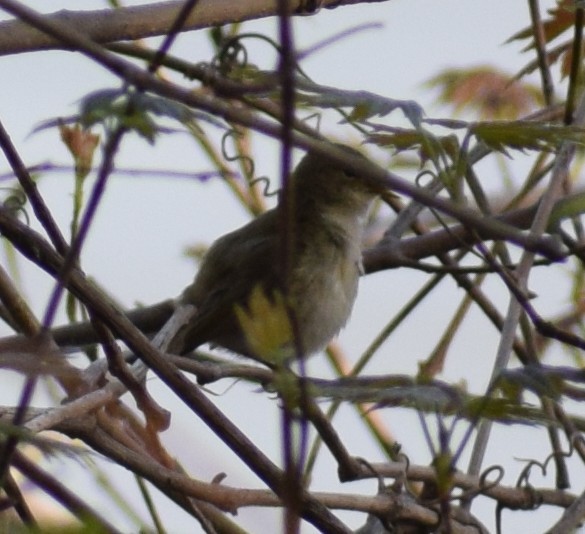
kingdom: Animalia
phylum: Chordata
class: Aves
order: Passeriformes
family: Phylloscopidae
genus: Phylloscopus
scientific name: Phylloscopus collybita
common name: Common chiffchaff
